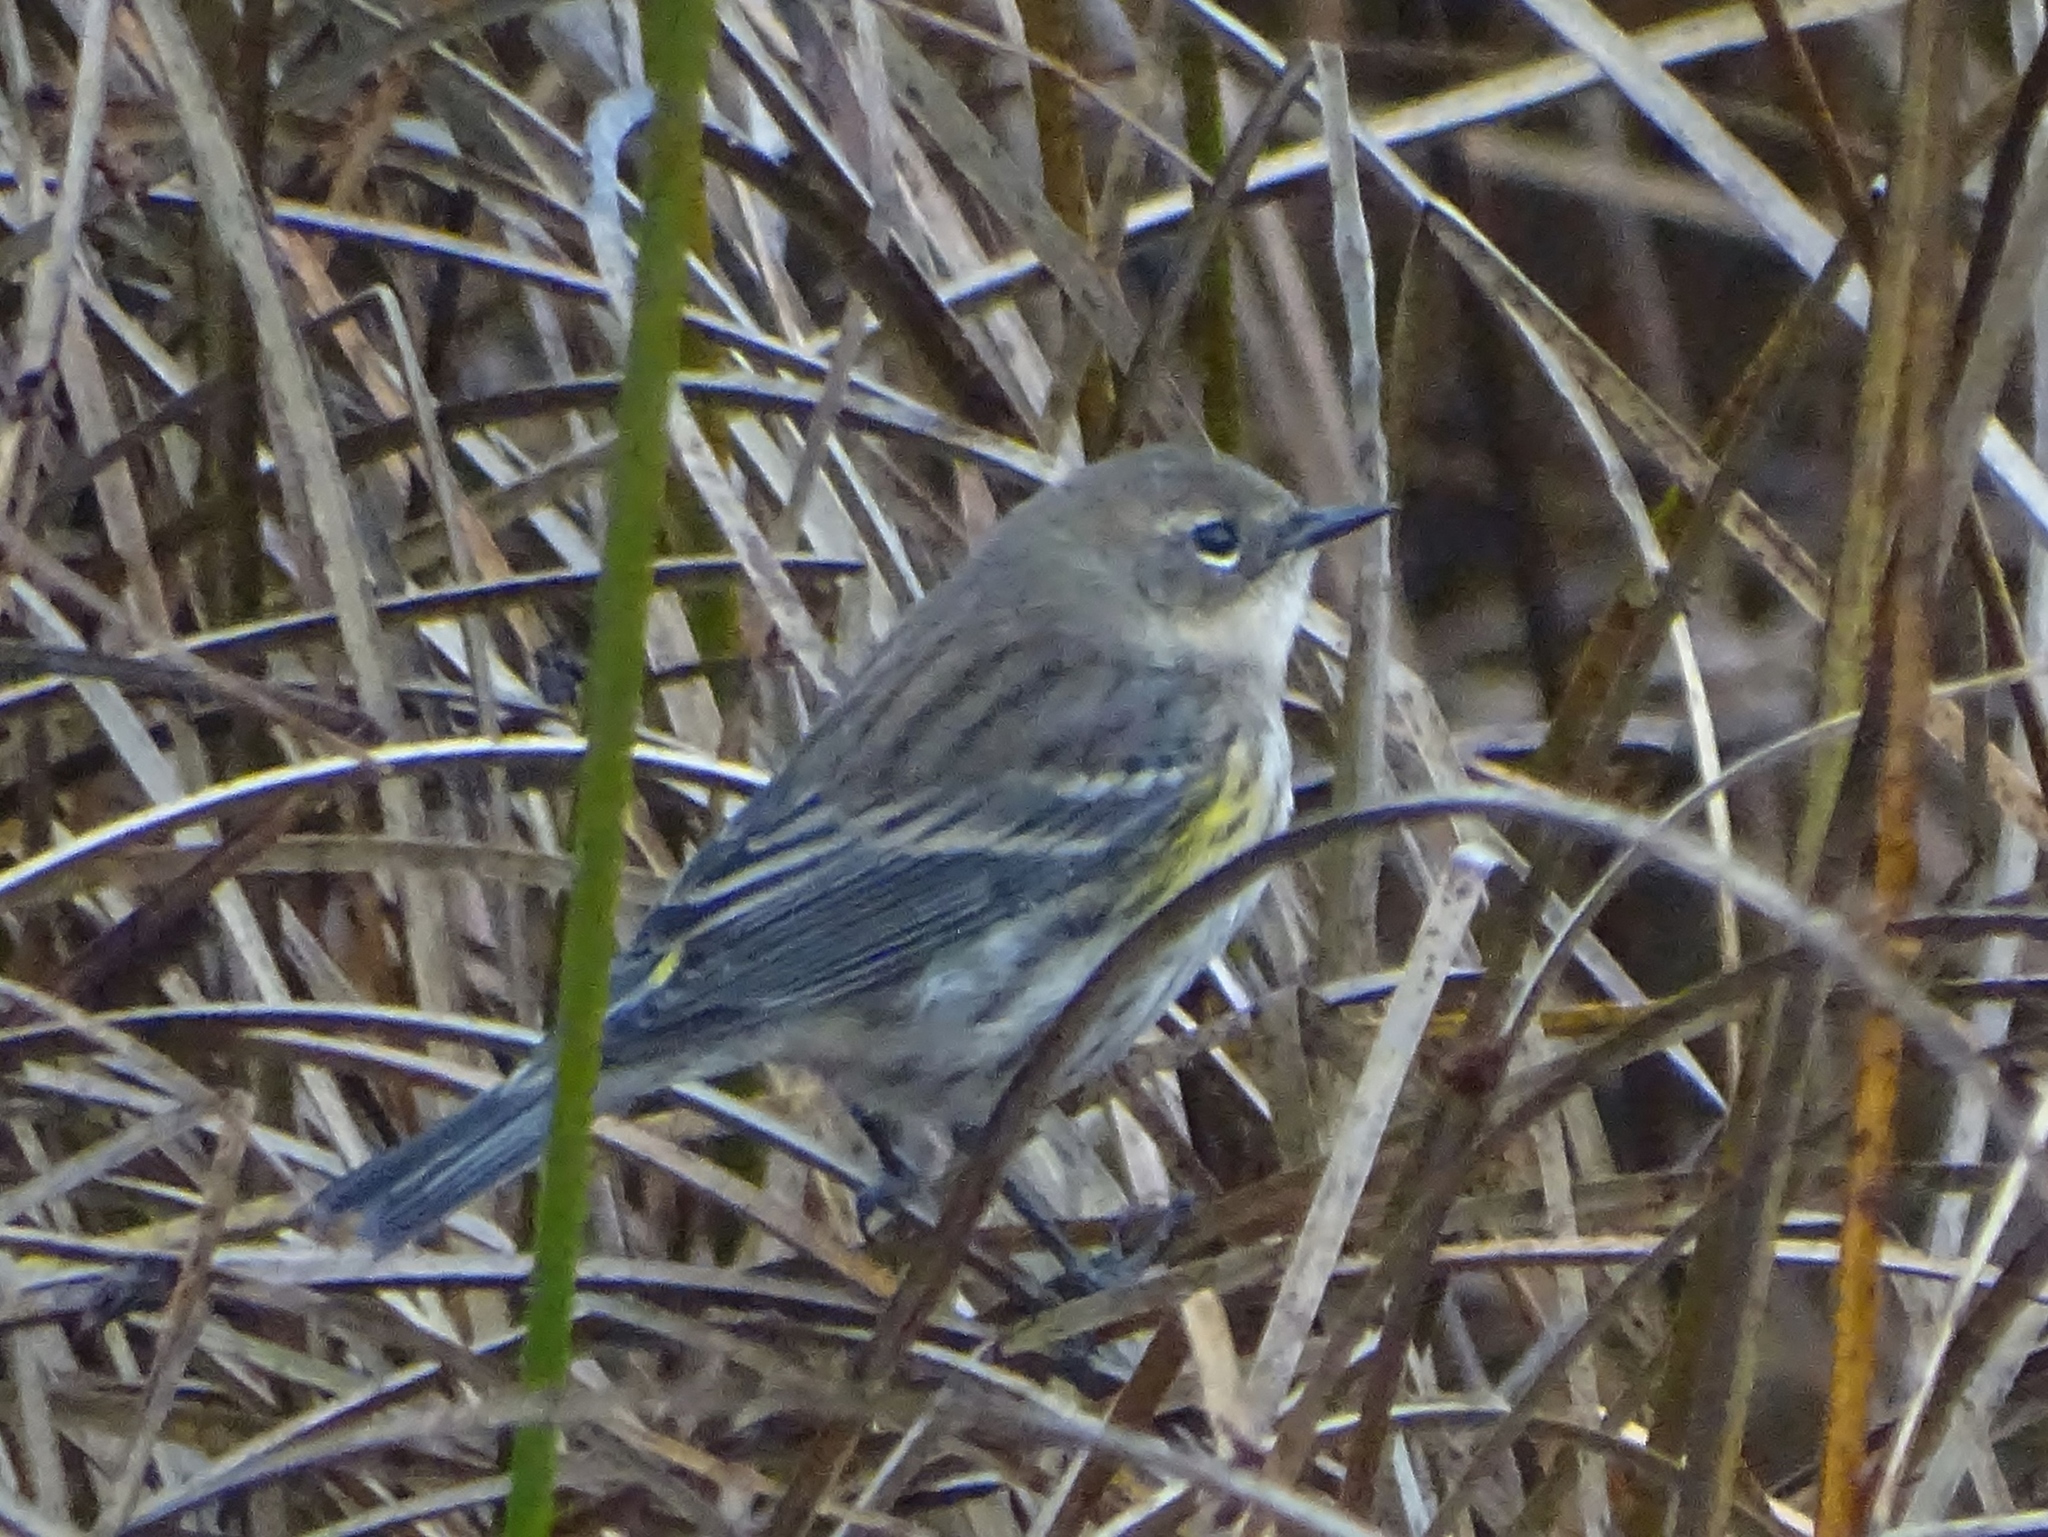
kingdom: Animalia
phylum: Chordata
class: Aves
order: Passeriformes
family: Parulidae
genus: Setophaga
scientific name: Setophaga coronata
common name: Myrtle warbler
